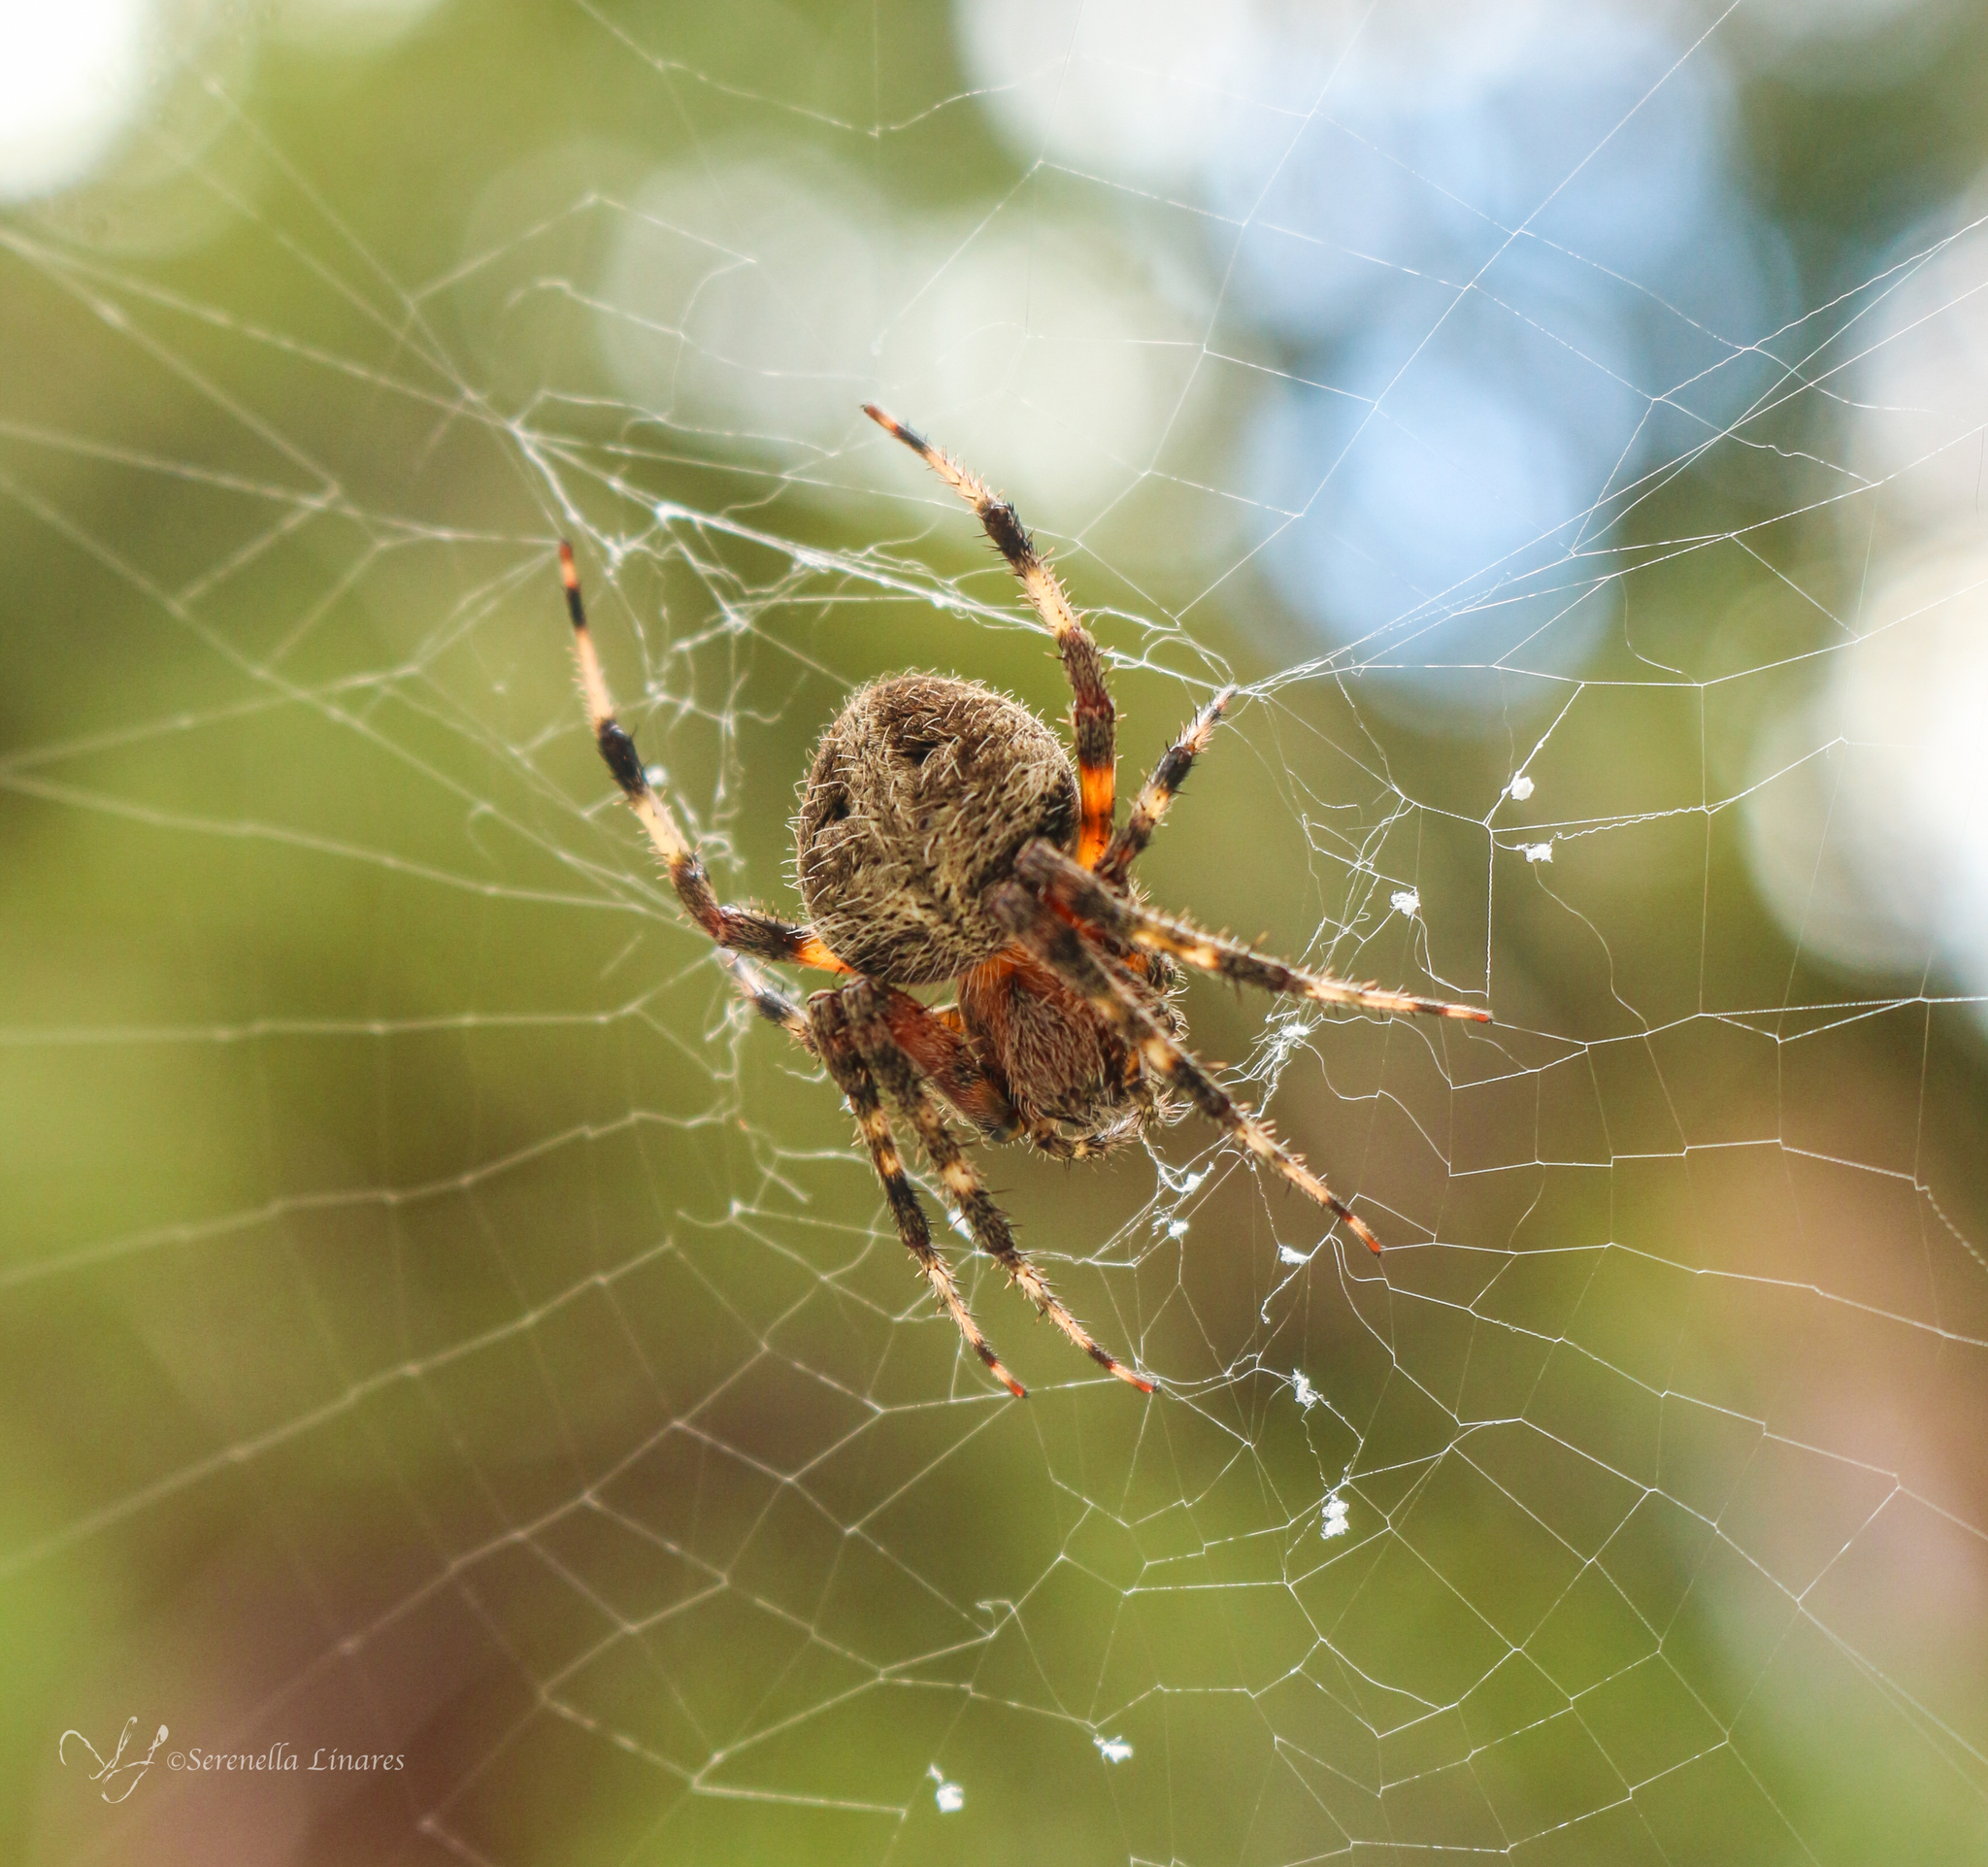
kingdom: Animalia
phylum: Arthropoda
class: Arachnida
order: Araneae
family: Araneidae
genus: Neoscona
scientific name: Neoscona crucifera
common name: Spotted orbweaver
